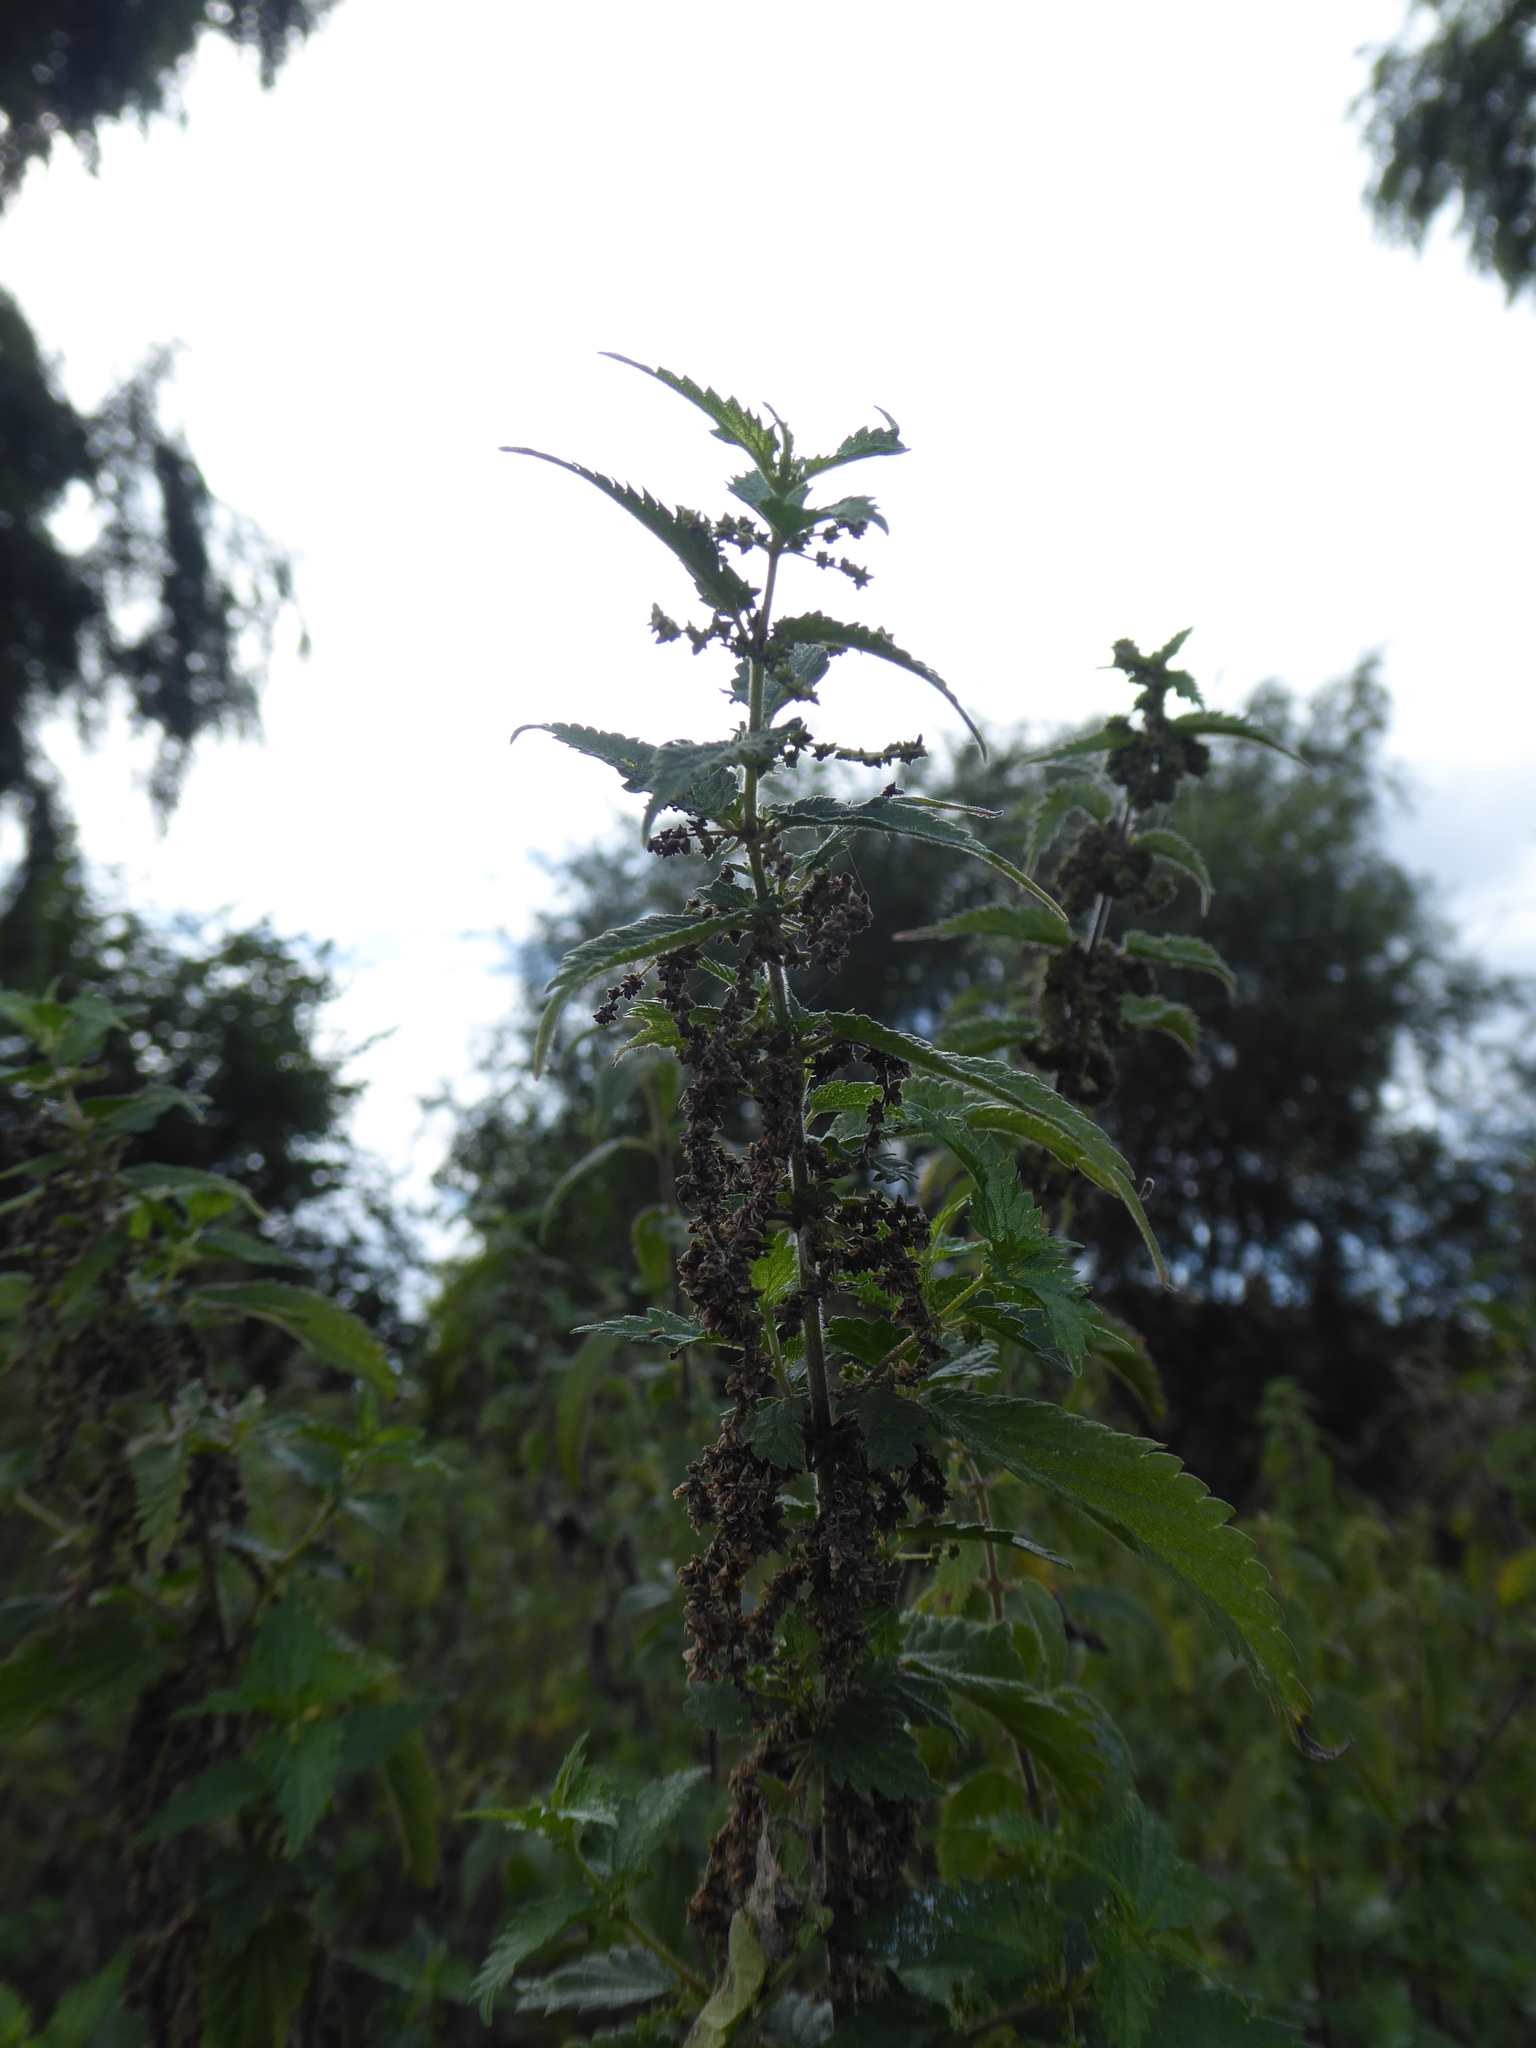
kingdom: Plantae
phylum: Tracheophyta
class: Magnoliopsida
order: Rosales
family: Urticaceae
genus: Urtica
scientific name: Urtica dioica
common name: Common nettle
